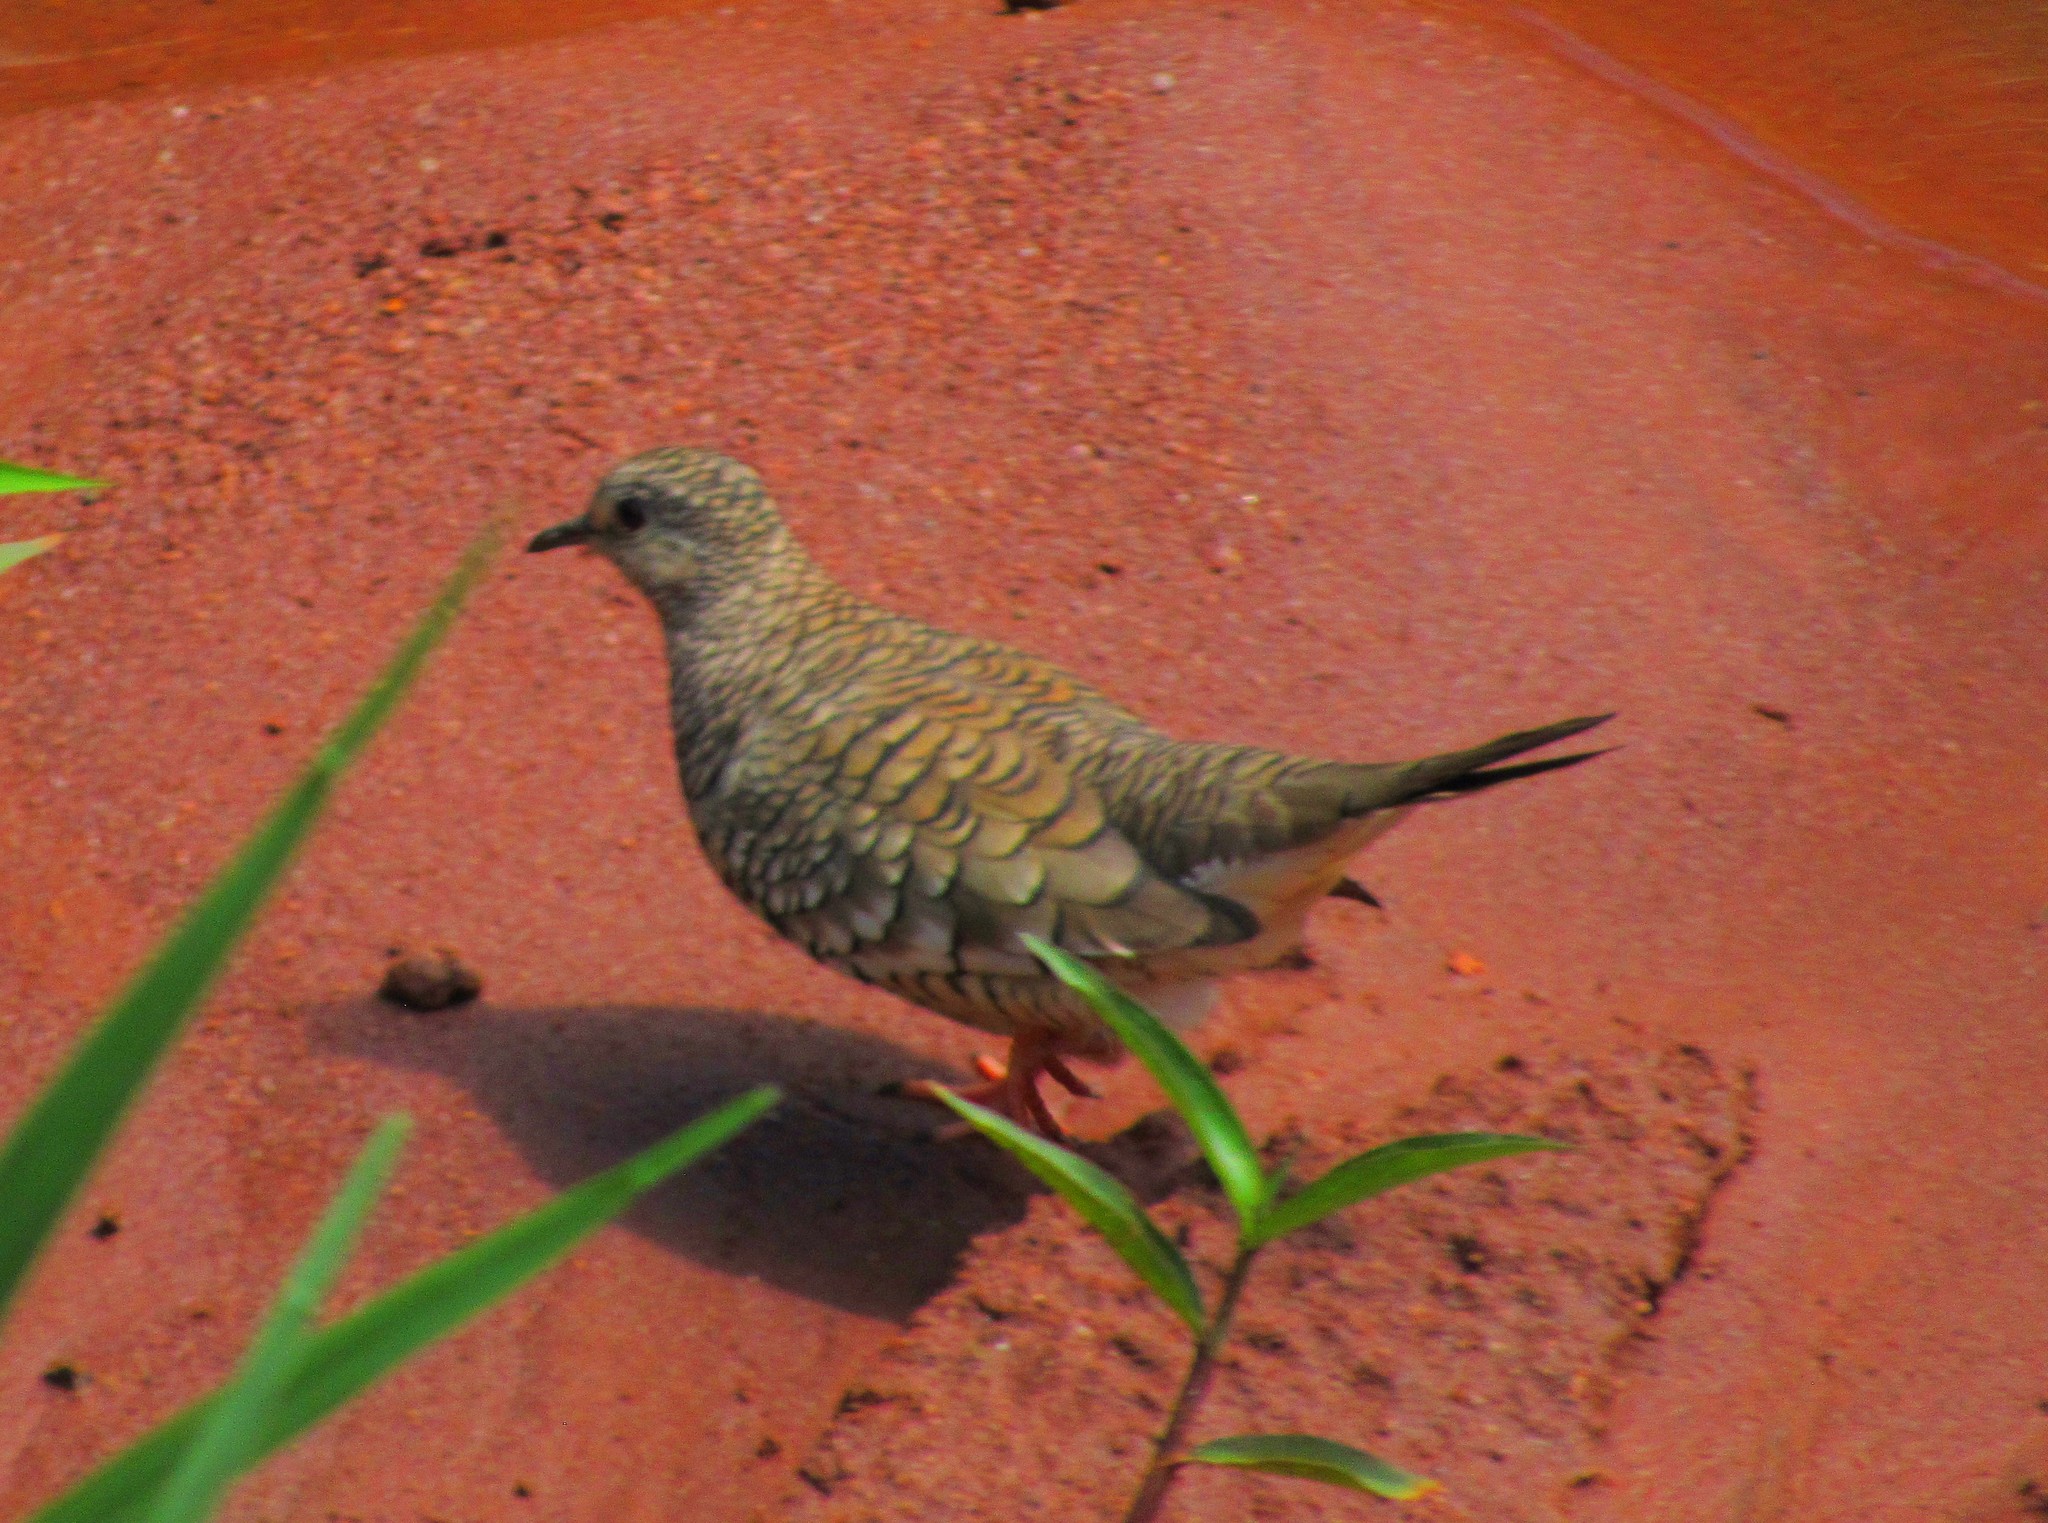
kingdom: Animalia
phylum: Chordata
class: Aves
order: Columbiformes
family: Columbidae
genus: Columbina
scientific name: Columbina squammata
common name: Scaled dove
